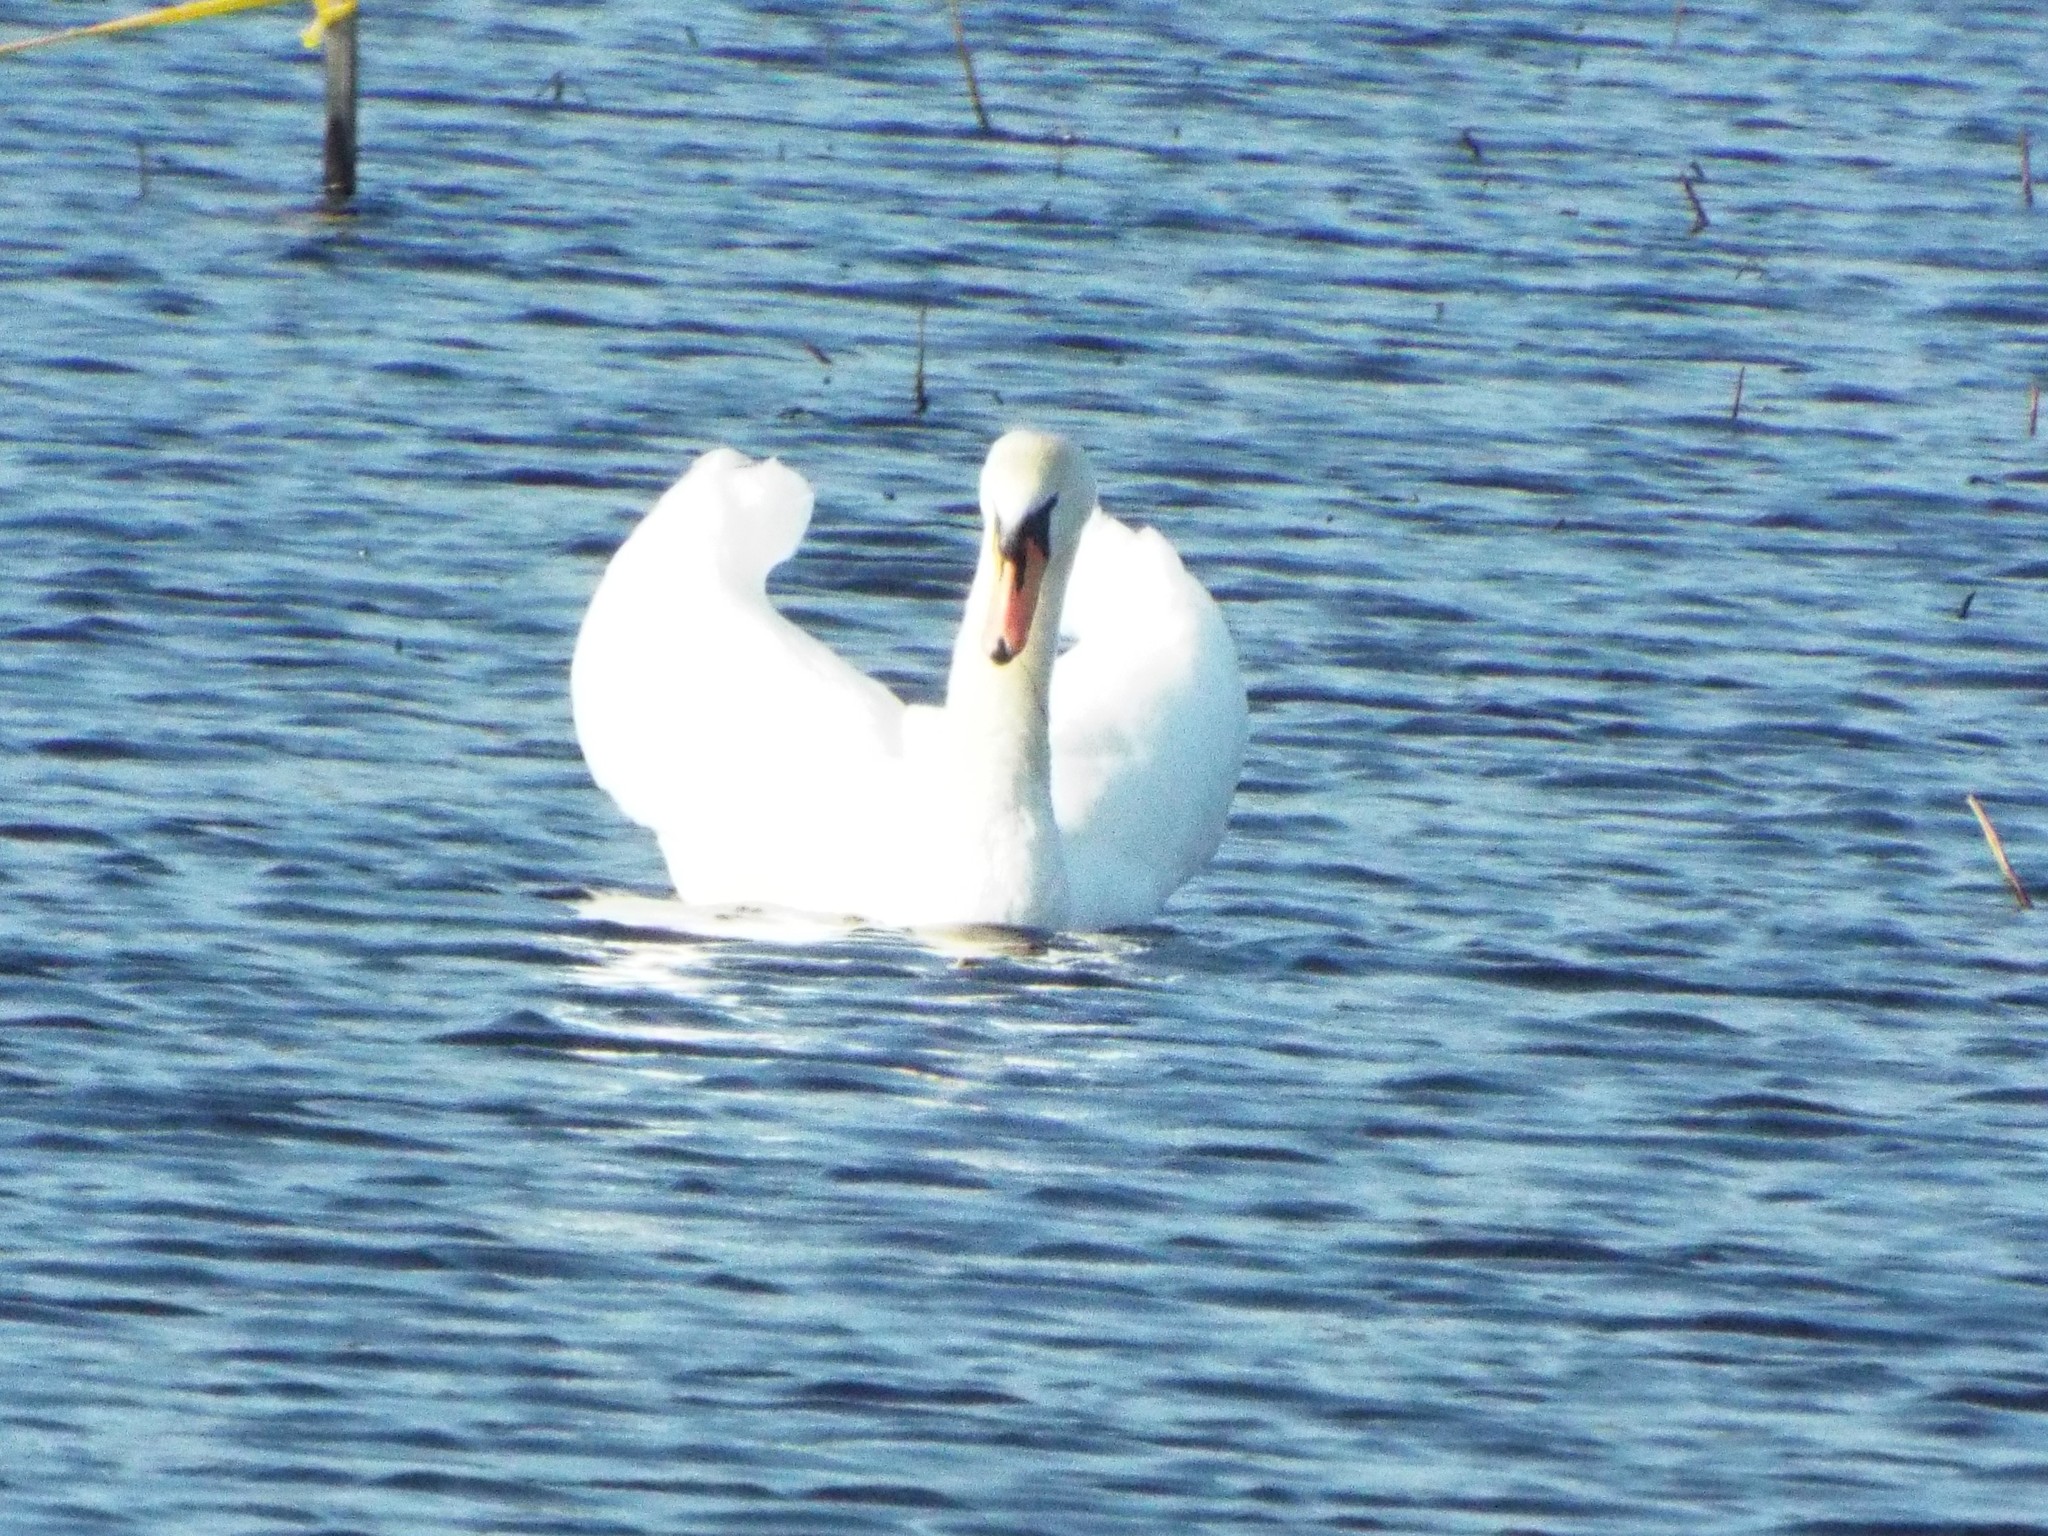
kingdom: Animalia
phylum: Chordata
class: Aves
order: Anseriformes
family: Anatidae
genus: Cygnus
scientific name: Cygnus olor
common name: Mute swan
